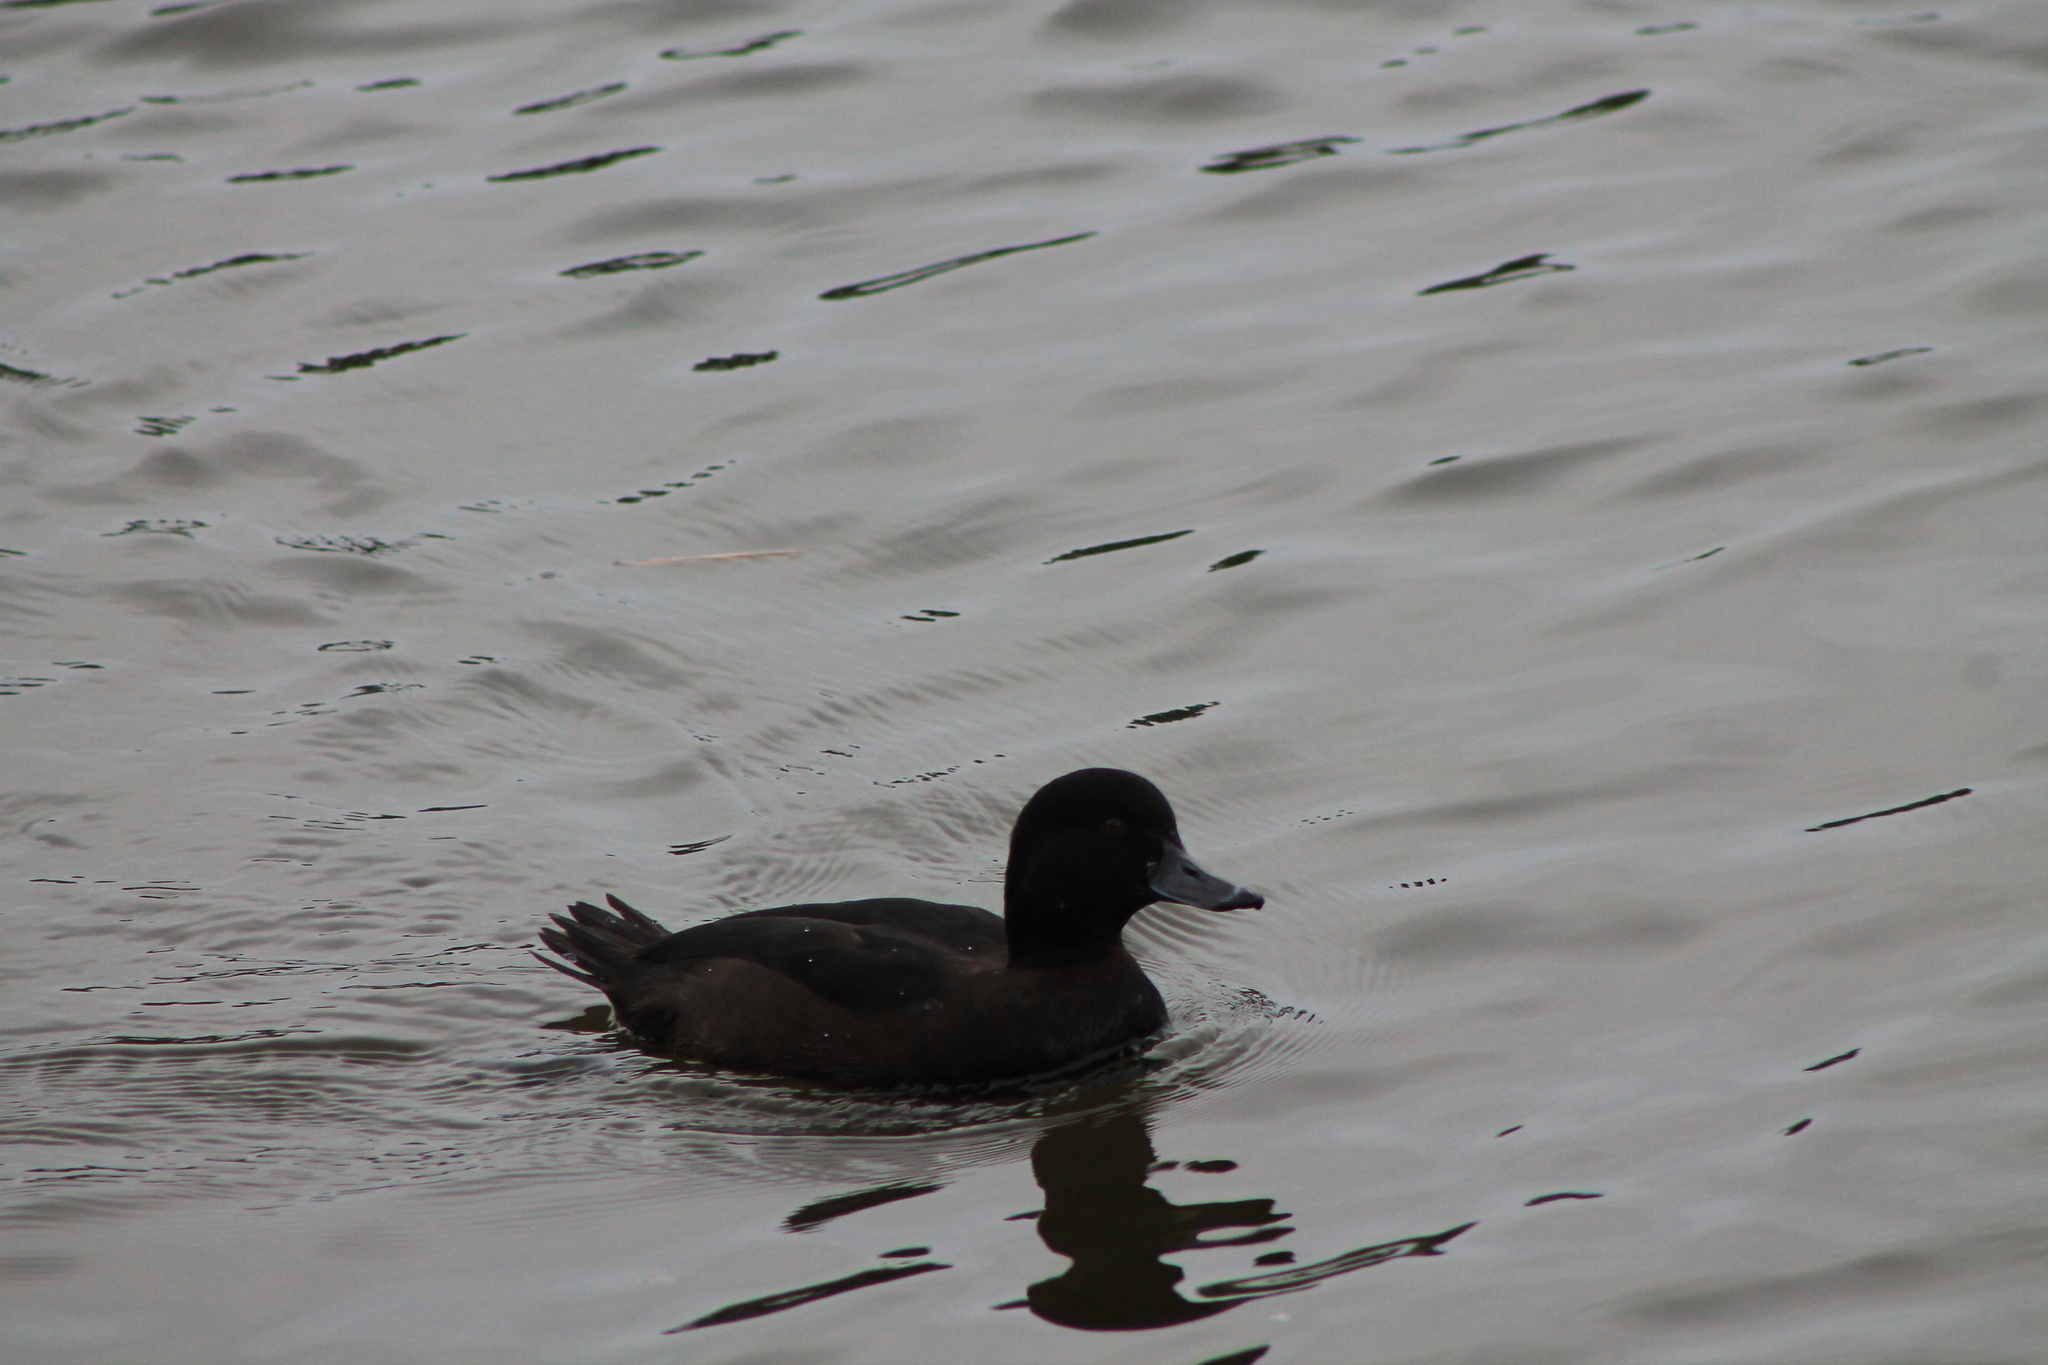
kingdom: Animalia
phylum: Chordata
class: Aves
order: Anseriformes
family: Anatidae
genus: Aythya
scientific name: Aythya novaeseelandiae
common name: New zealand scaup
